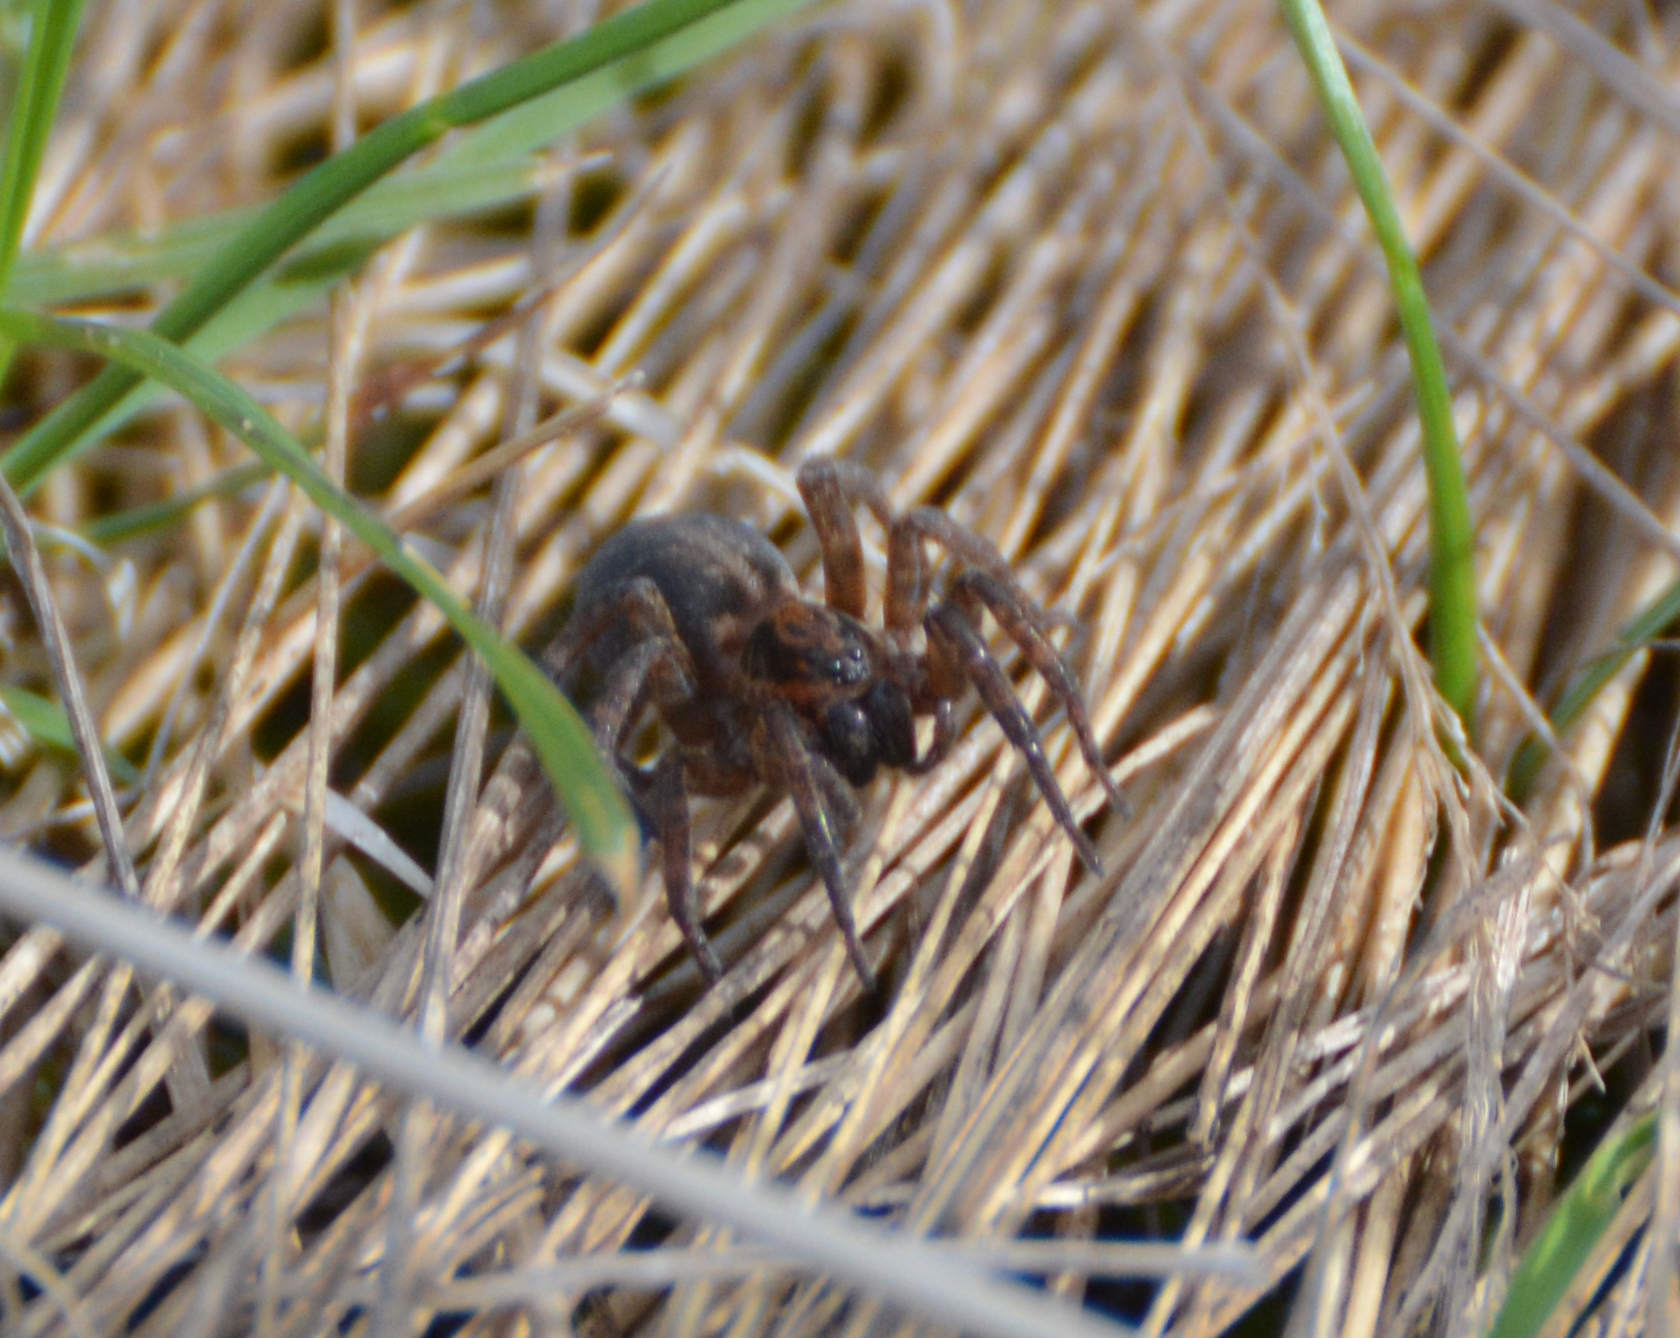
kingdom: Animalia
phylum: Arthropoda
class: Arachnida
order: Araneae
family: Lycosidae
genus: Trochosa
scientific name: Trochosa
